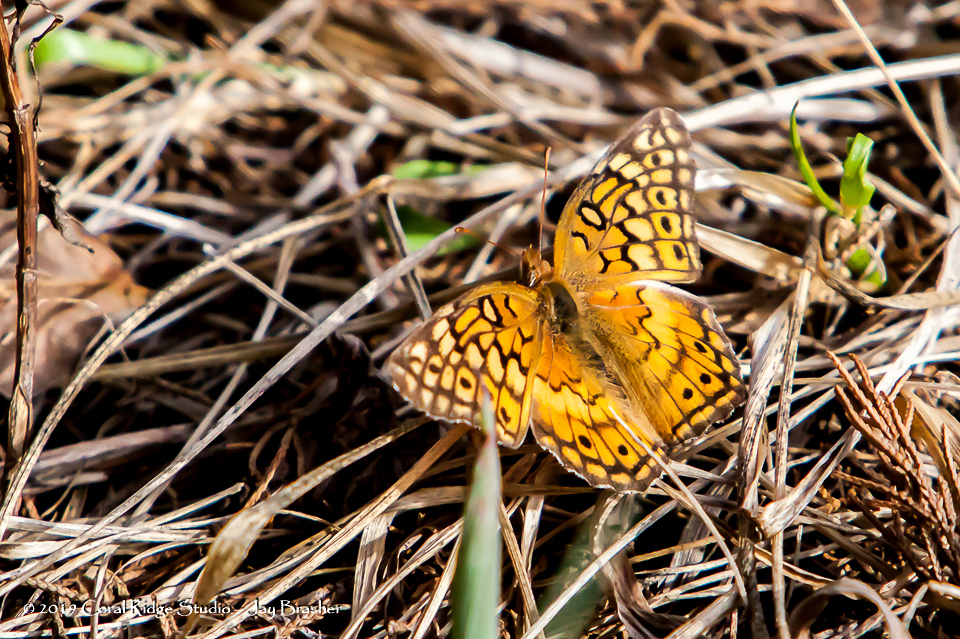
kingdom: Animalia
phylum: Arthropoda
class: Insecta
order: Lepidoptera
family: Nymphalidae
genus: Euptoieta
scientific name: Euptoieta claudia
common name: Variegated fritillary
